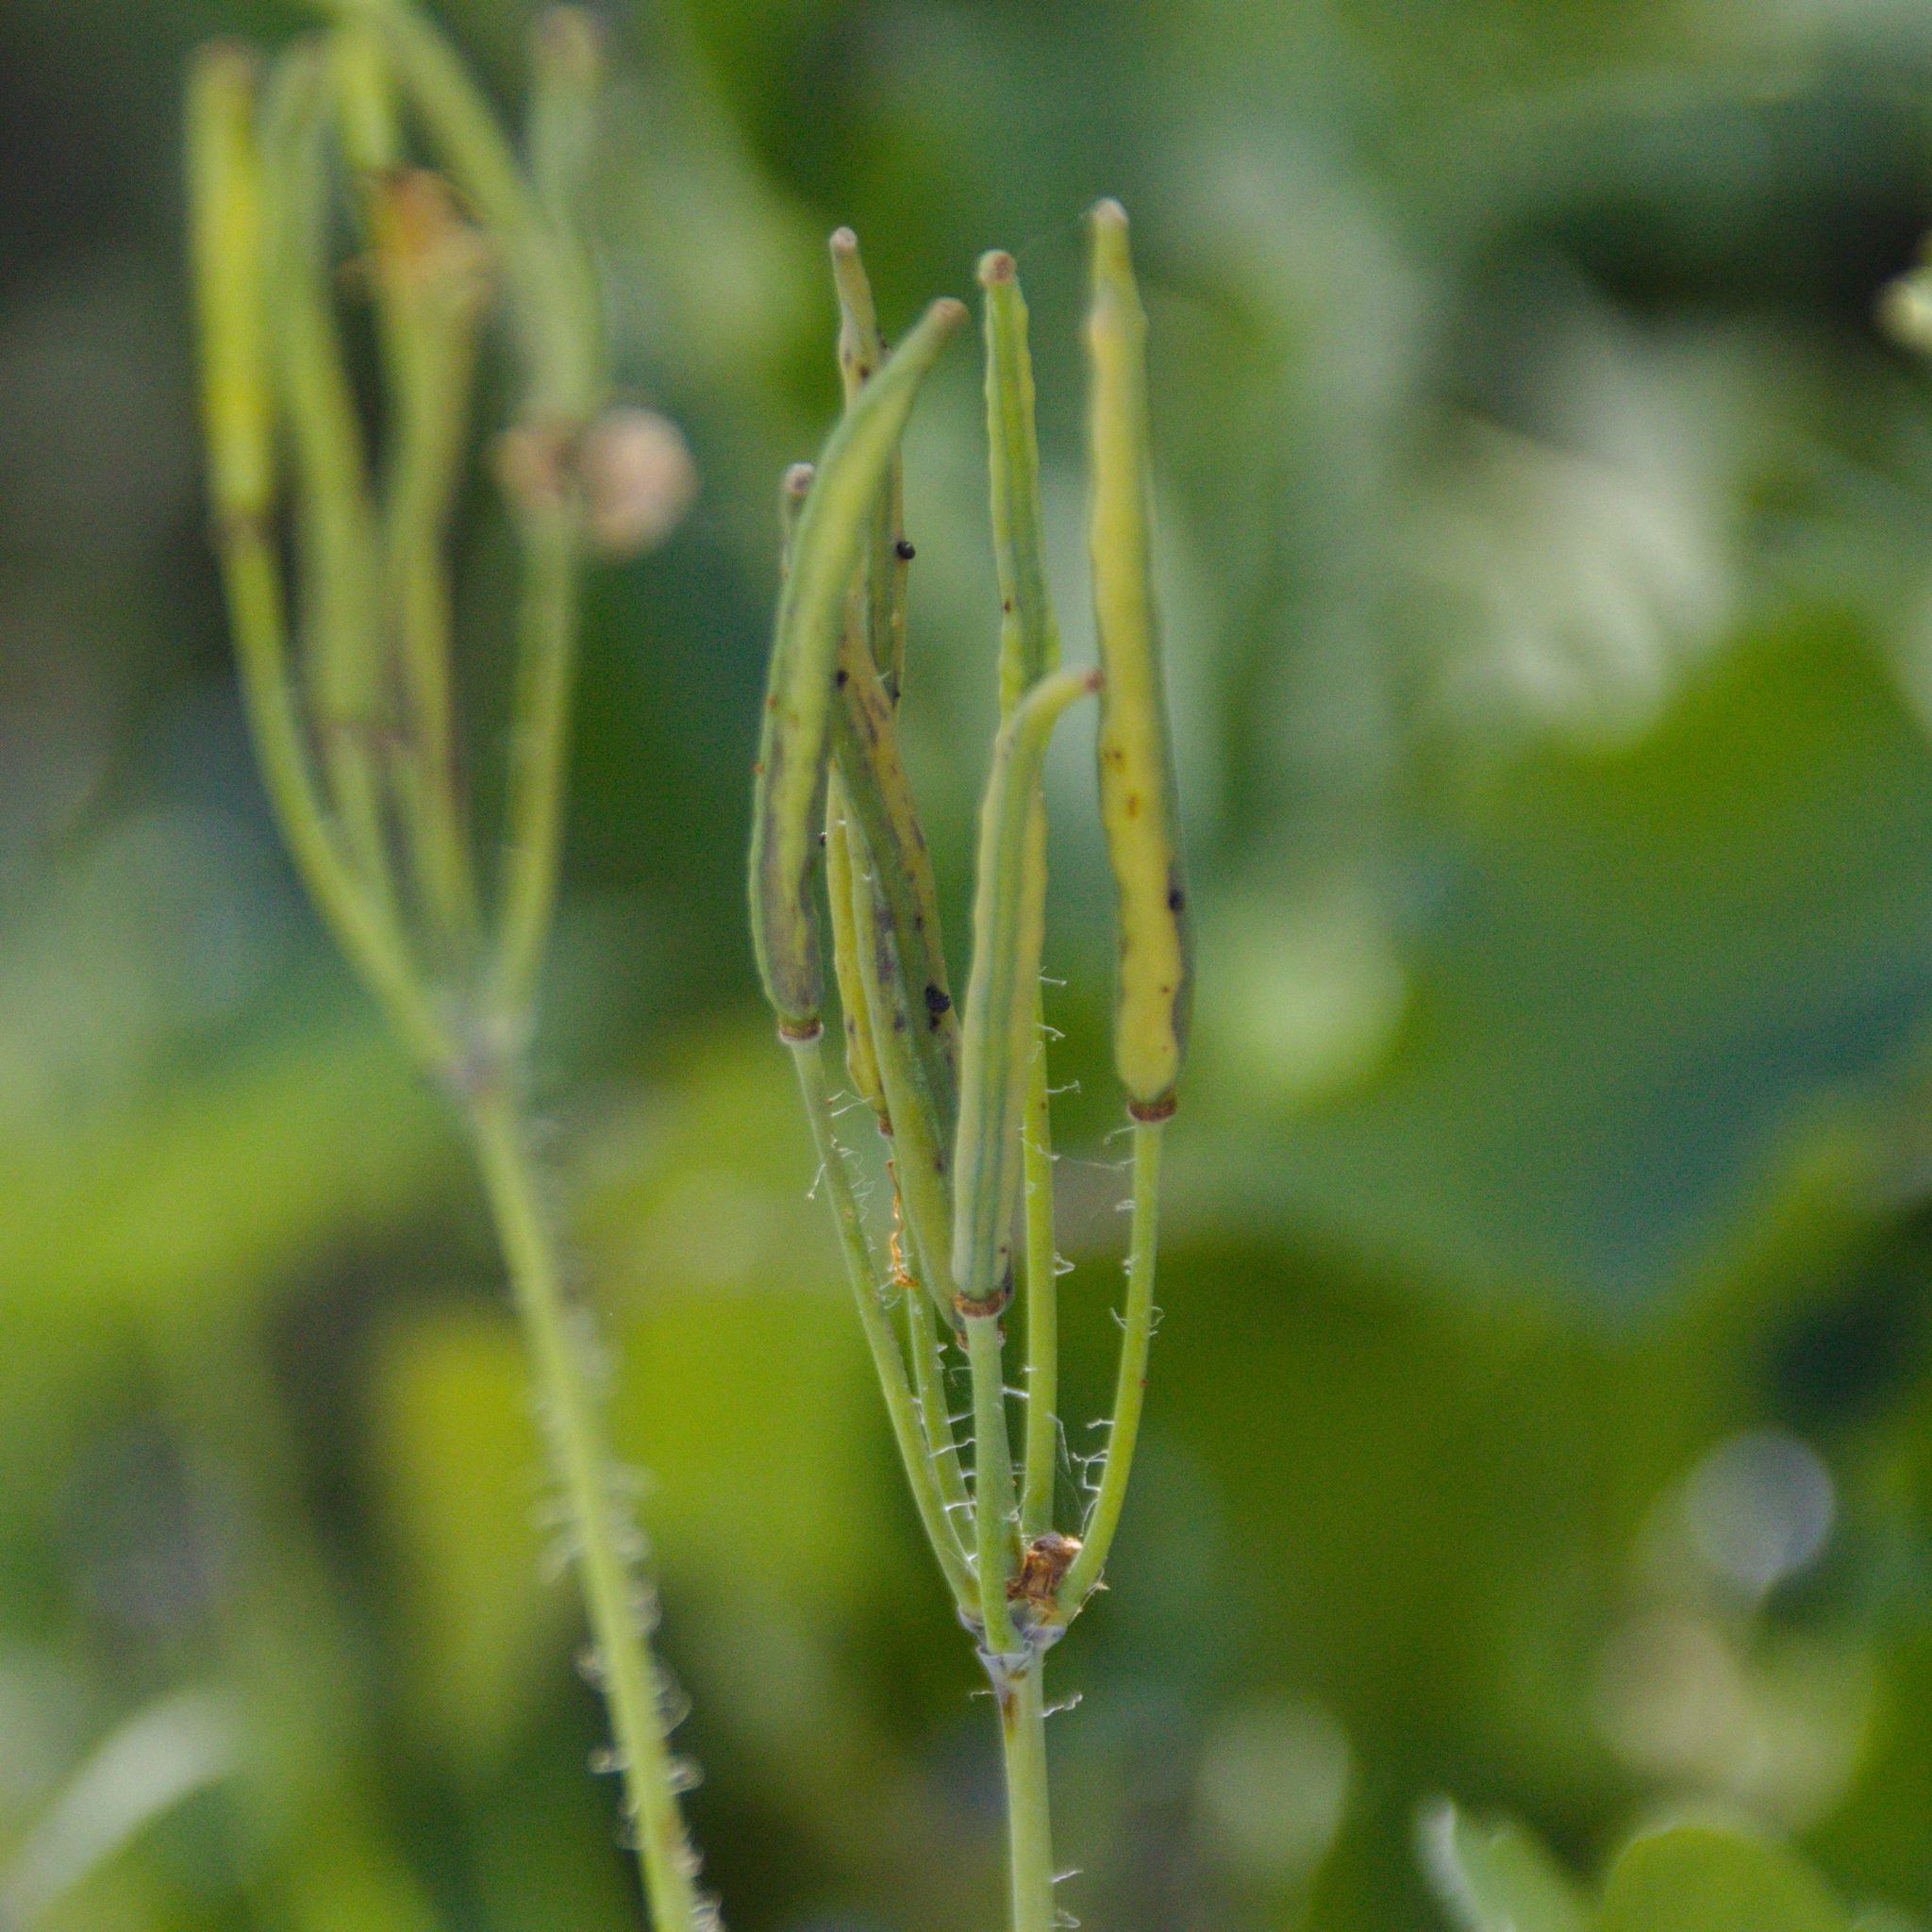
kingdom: Plantae
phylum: Tracheophyta
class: Magnoliopsida
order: Ranunculales
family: Papaveraceae
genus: Chelidonium
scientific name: Chelidonium majus
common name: Greater celandine
